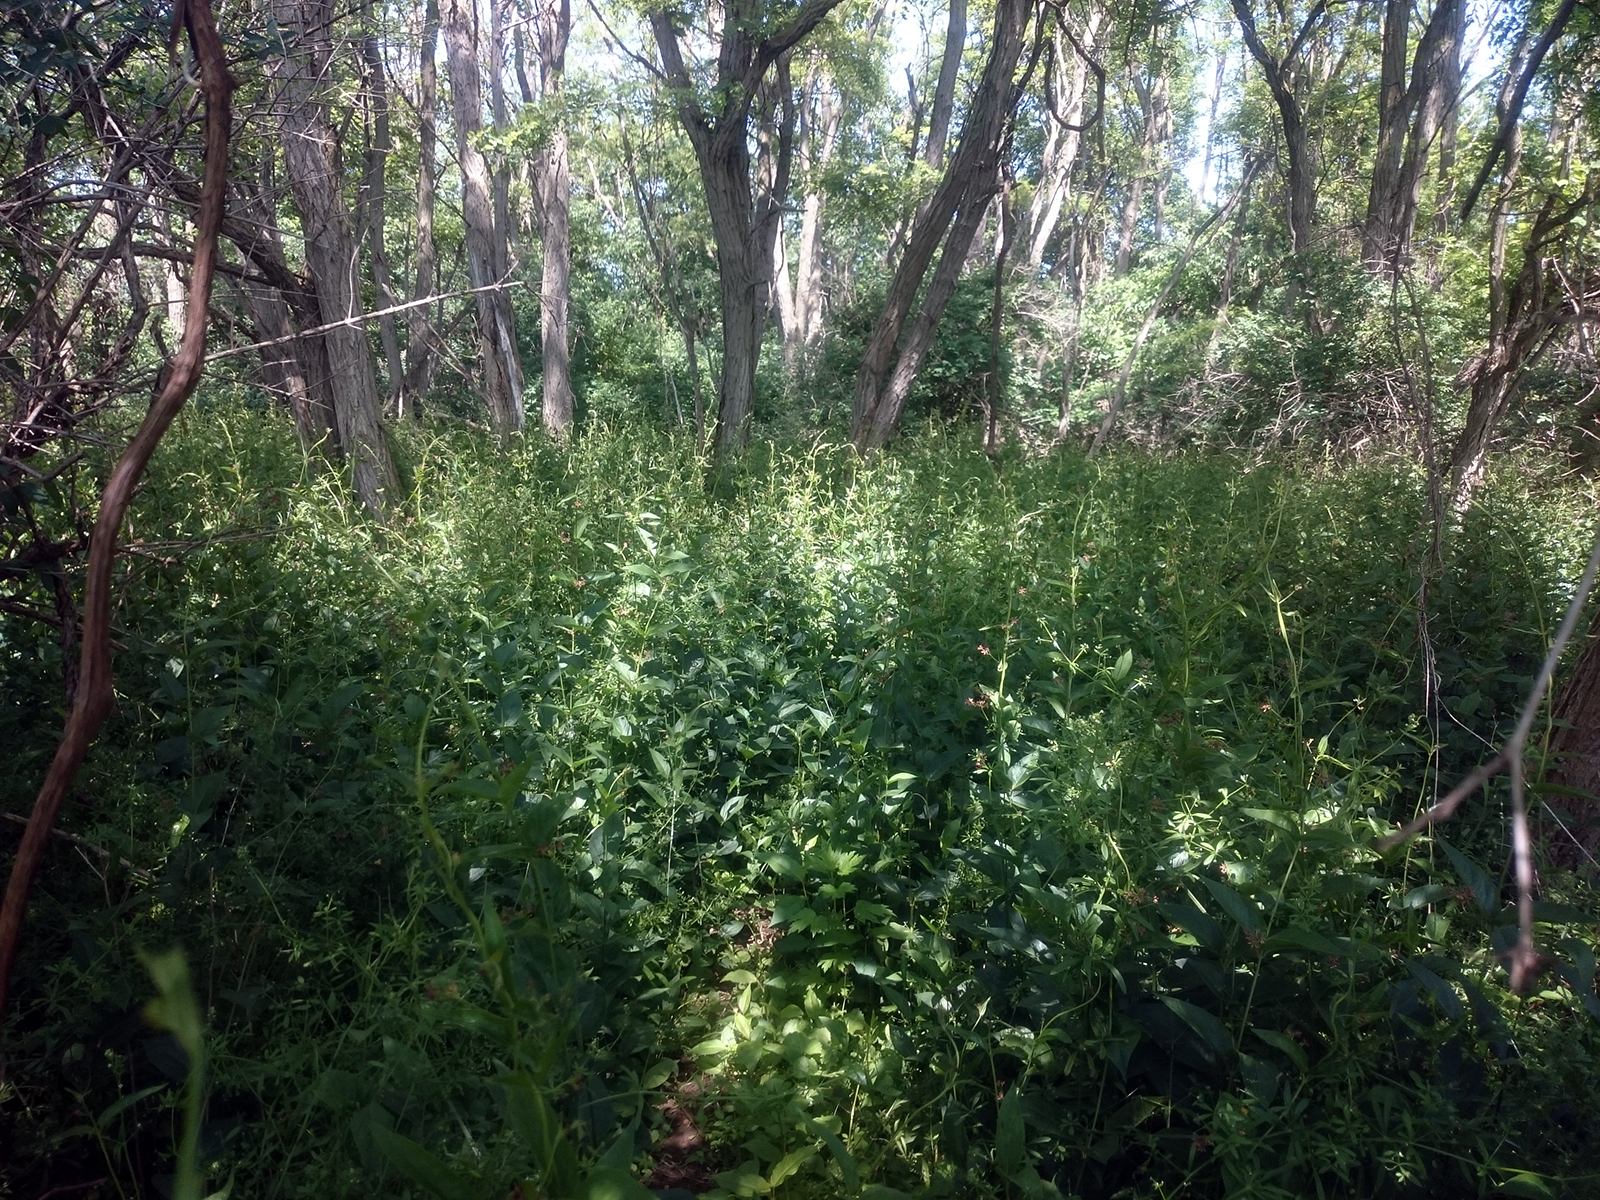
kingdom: Plantae
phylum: Tracheophyta
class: Magnoliopsida
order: Gentianales
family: Apocynaceae
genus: Vincetoxicum
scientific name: Vincetoxicum rossicum
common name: Dog-strangling vine
